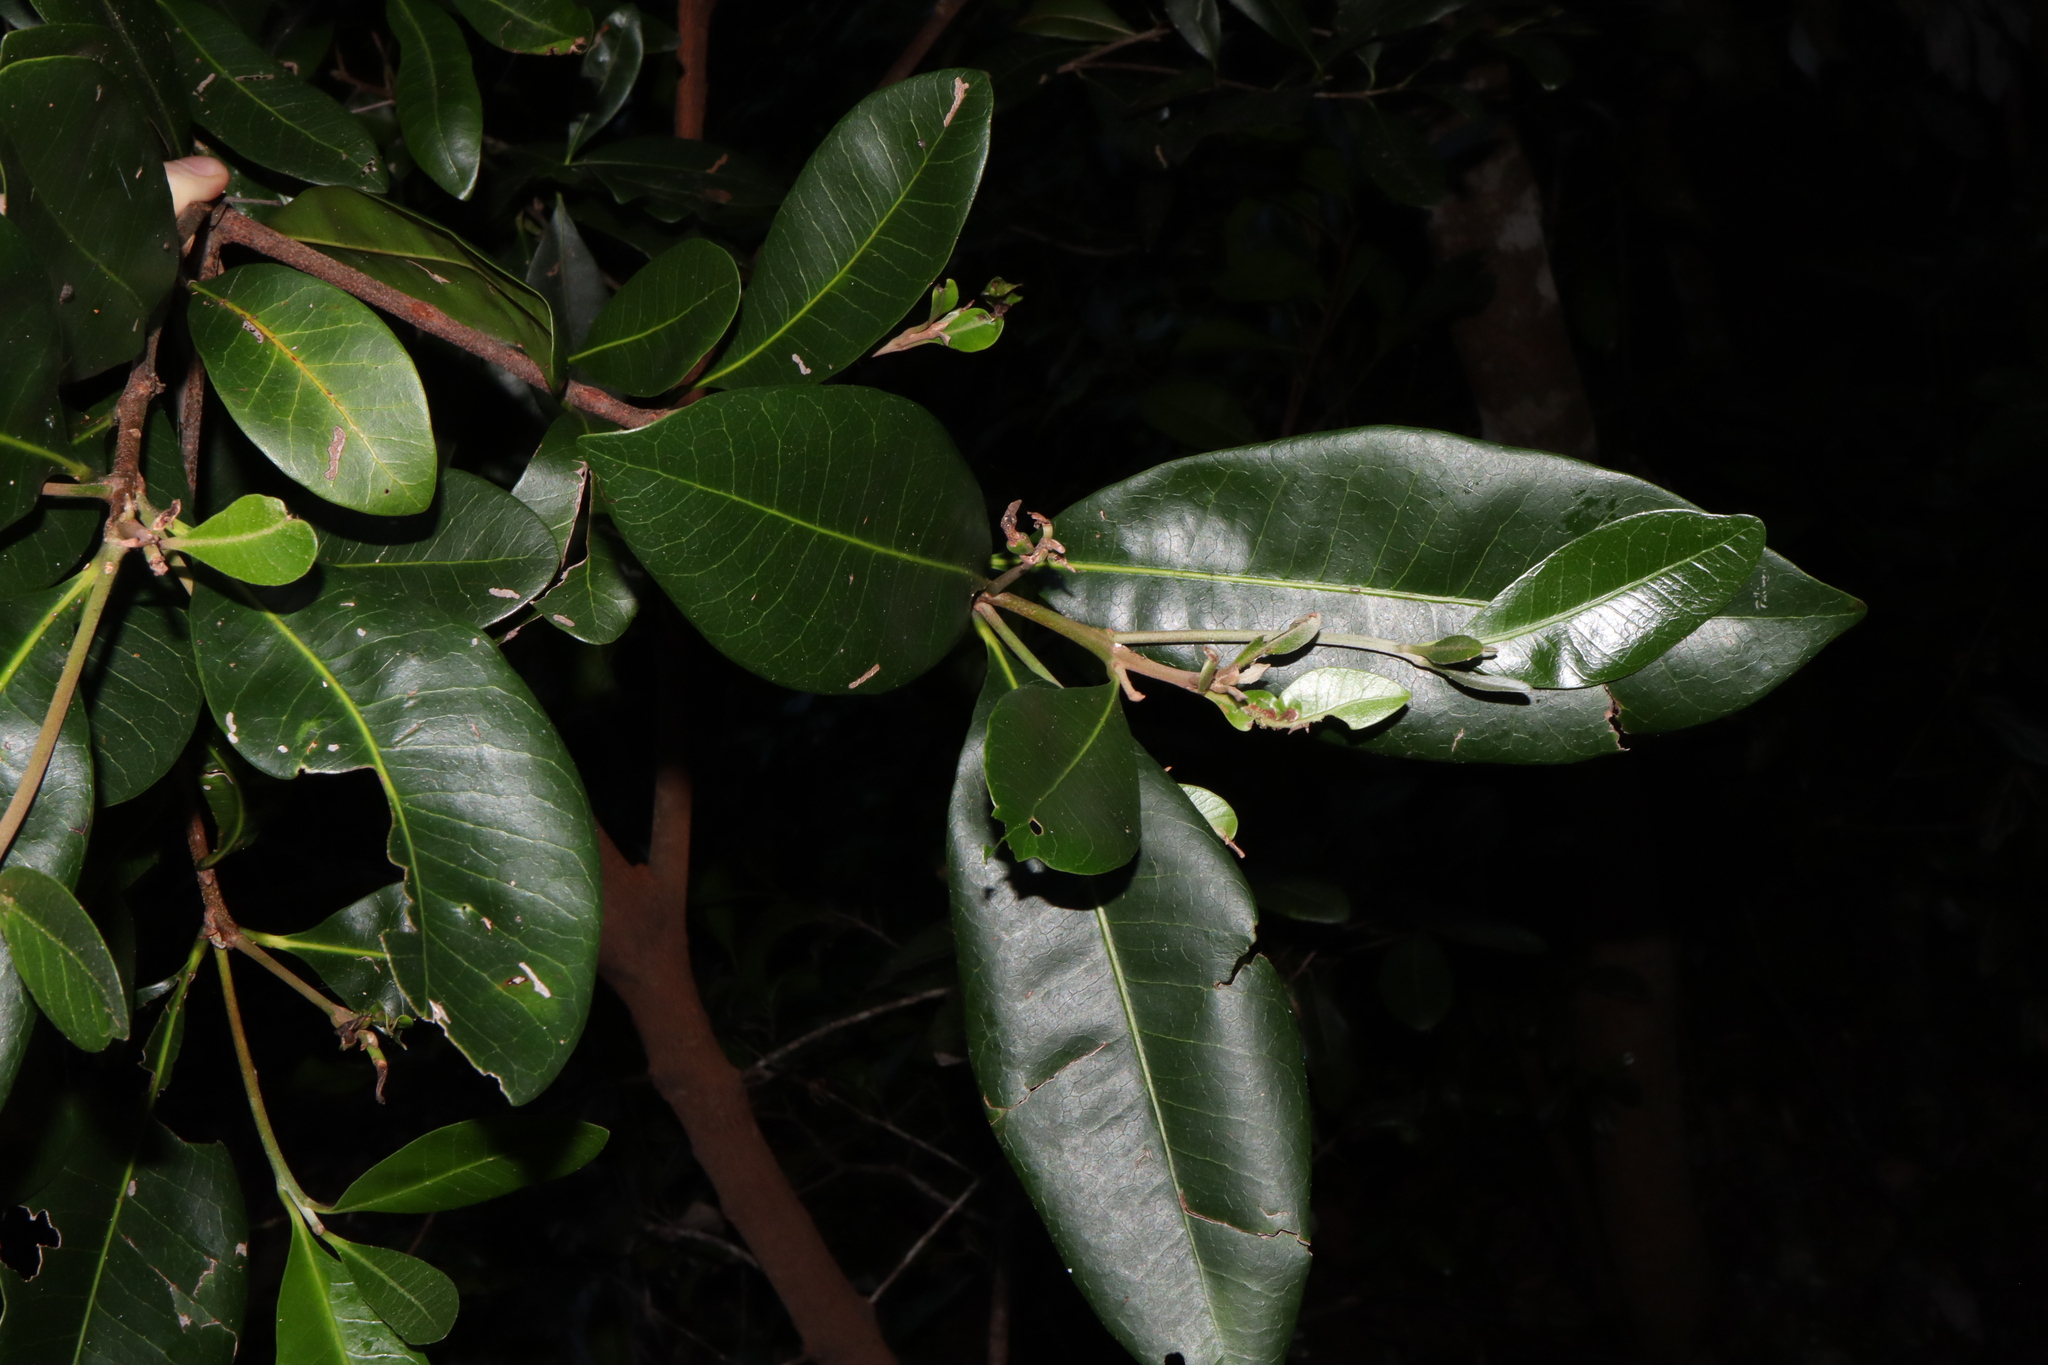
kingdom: Plantae
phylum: Tracheophyta
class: Magnoliopsida
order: Ericales
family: Sapotaceae
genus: Planchonella
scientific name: Planchonella australis
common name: Black apple
